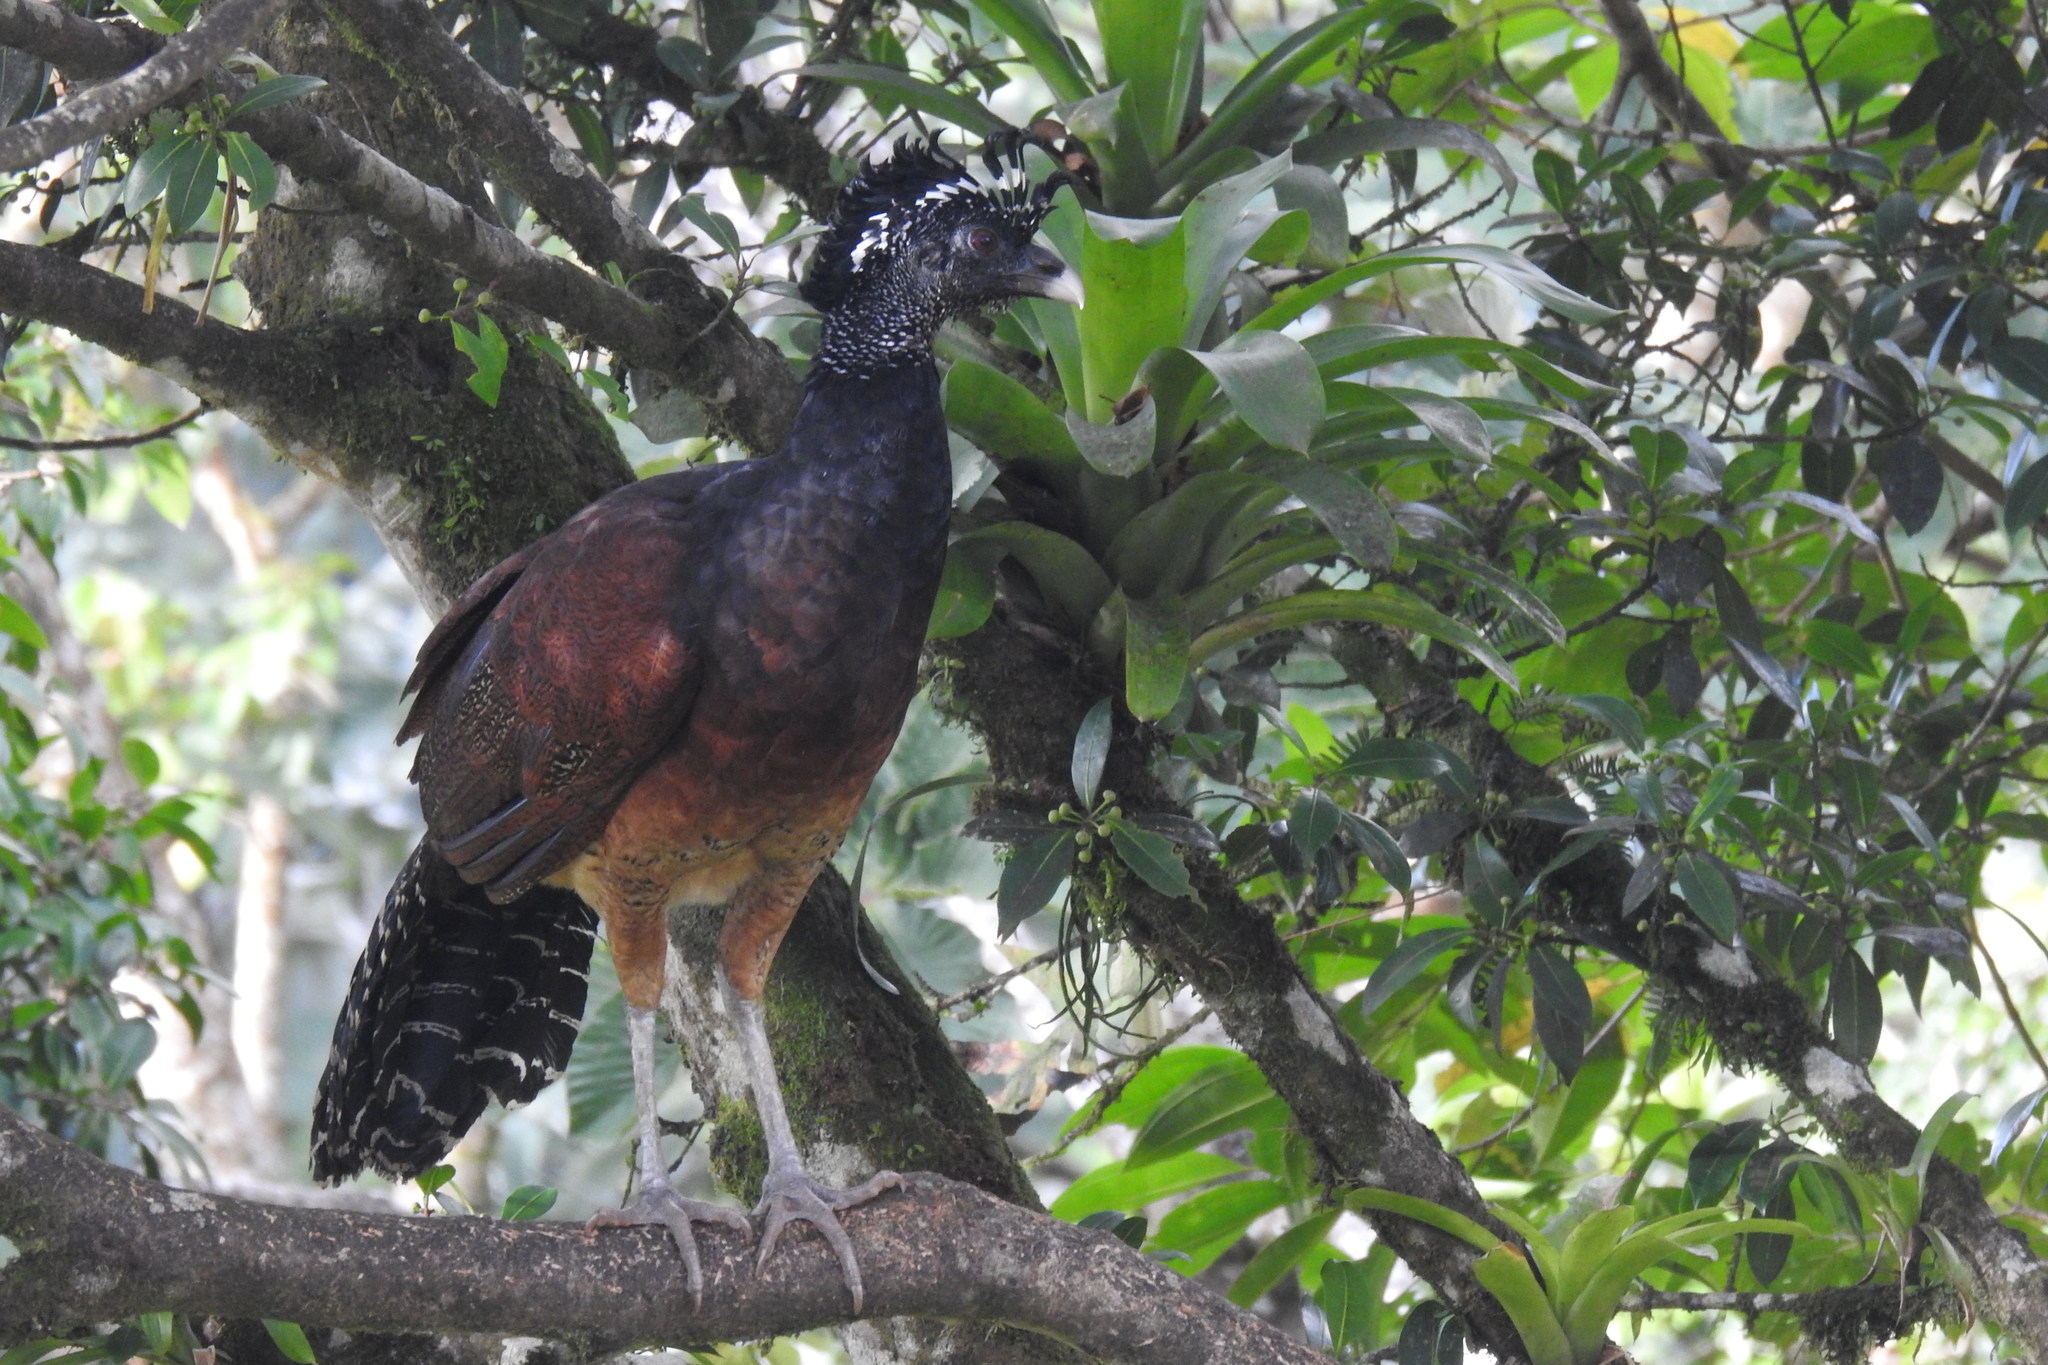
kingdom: Animalia
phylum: Chordata
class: Aves
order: Galliformes
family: Cracidae
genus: Crax
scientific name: Crax rubra
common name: Great curassow
